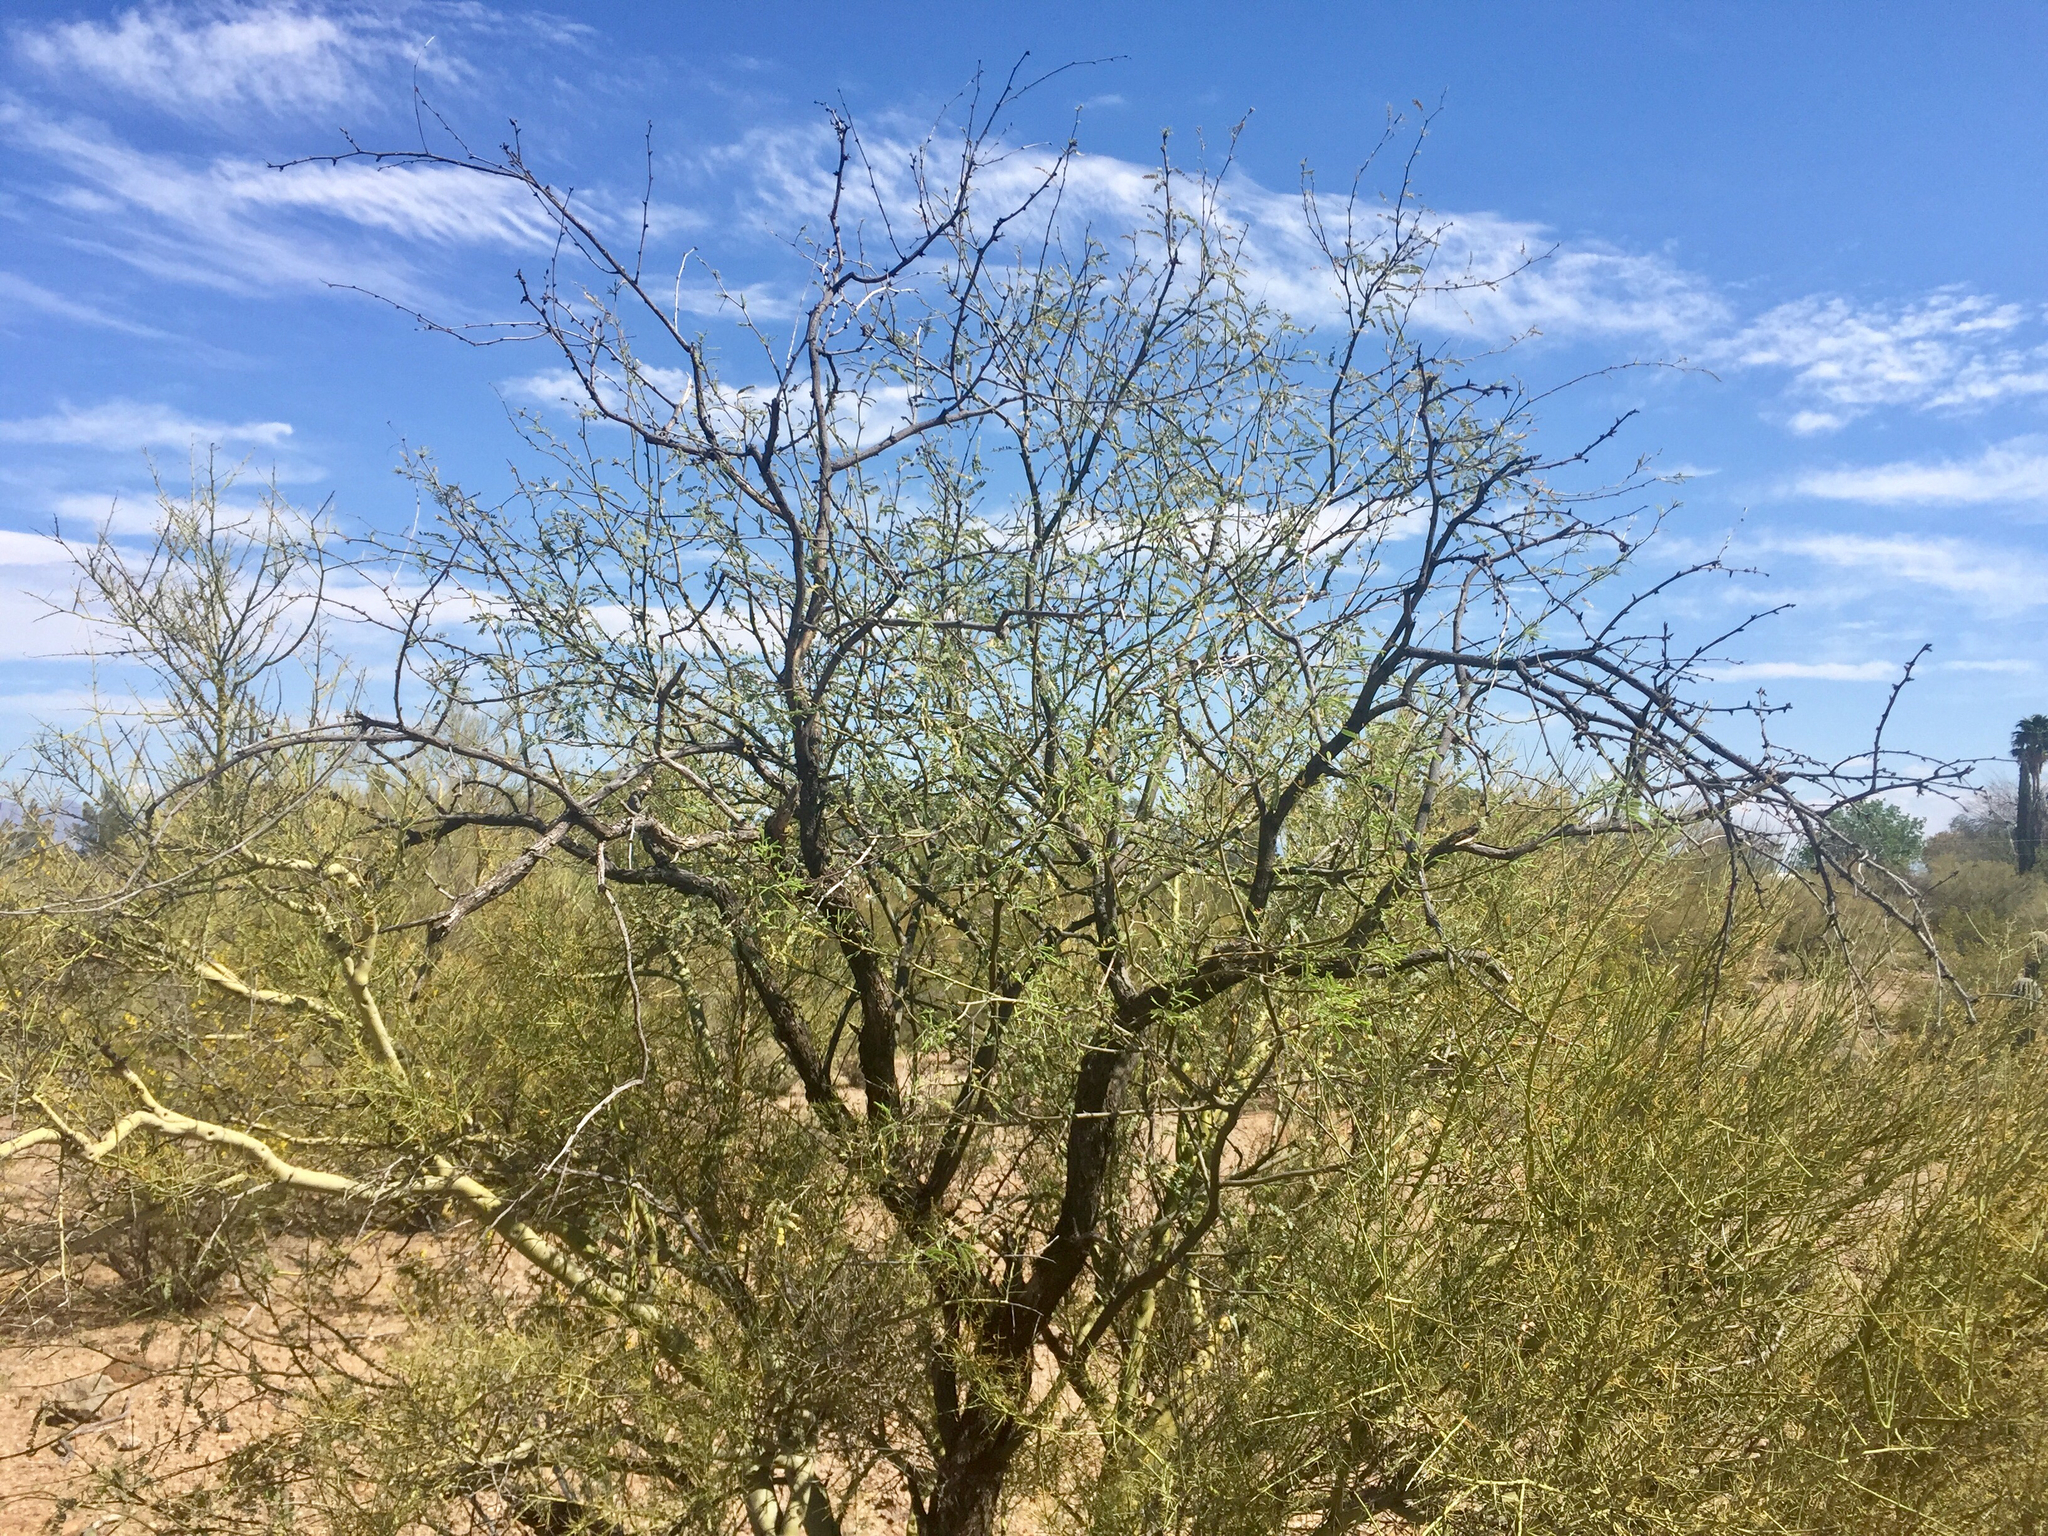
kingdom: Plantae
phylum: Tracheophyta
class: Magnoliopsida
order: Fabales
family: Fabaceae
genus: Prosopis
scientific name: Prosopis velutina
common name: Velvet mesquite
